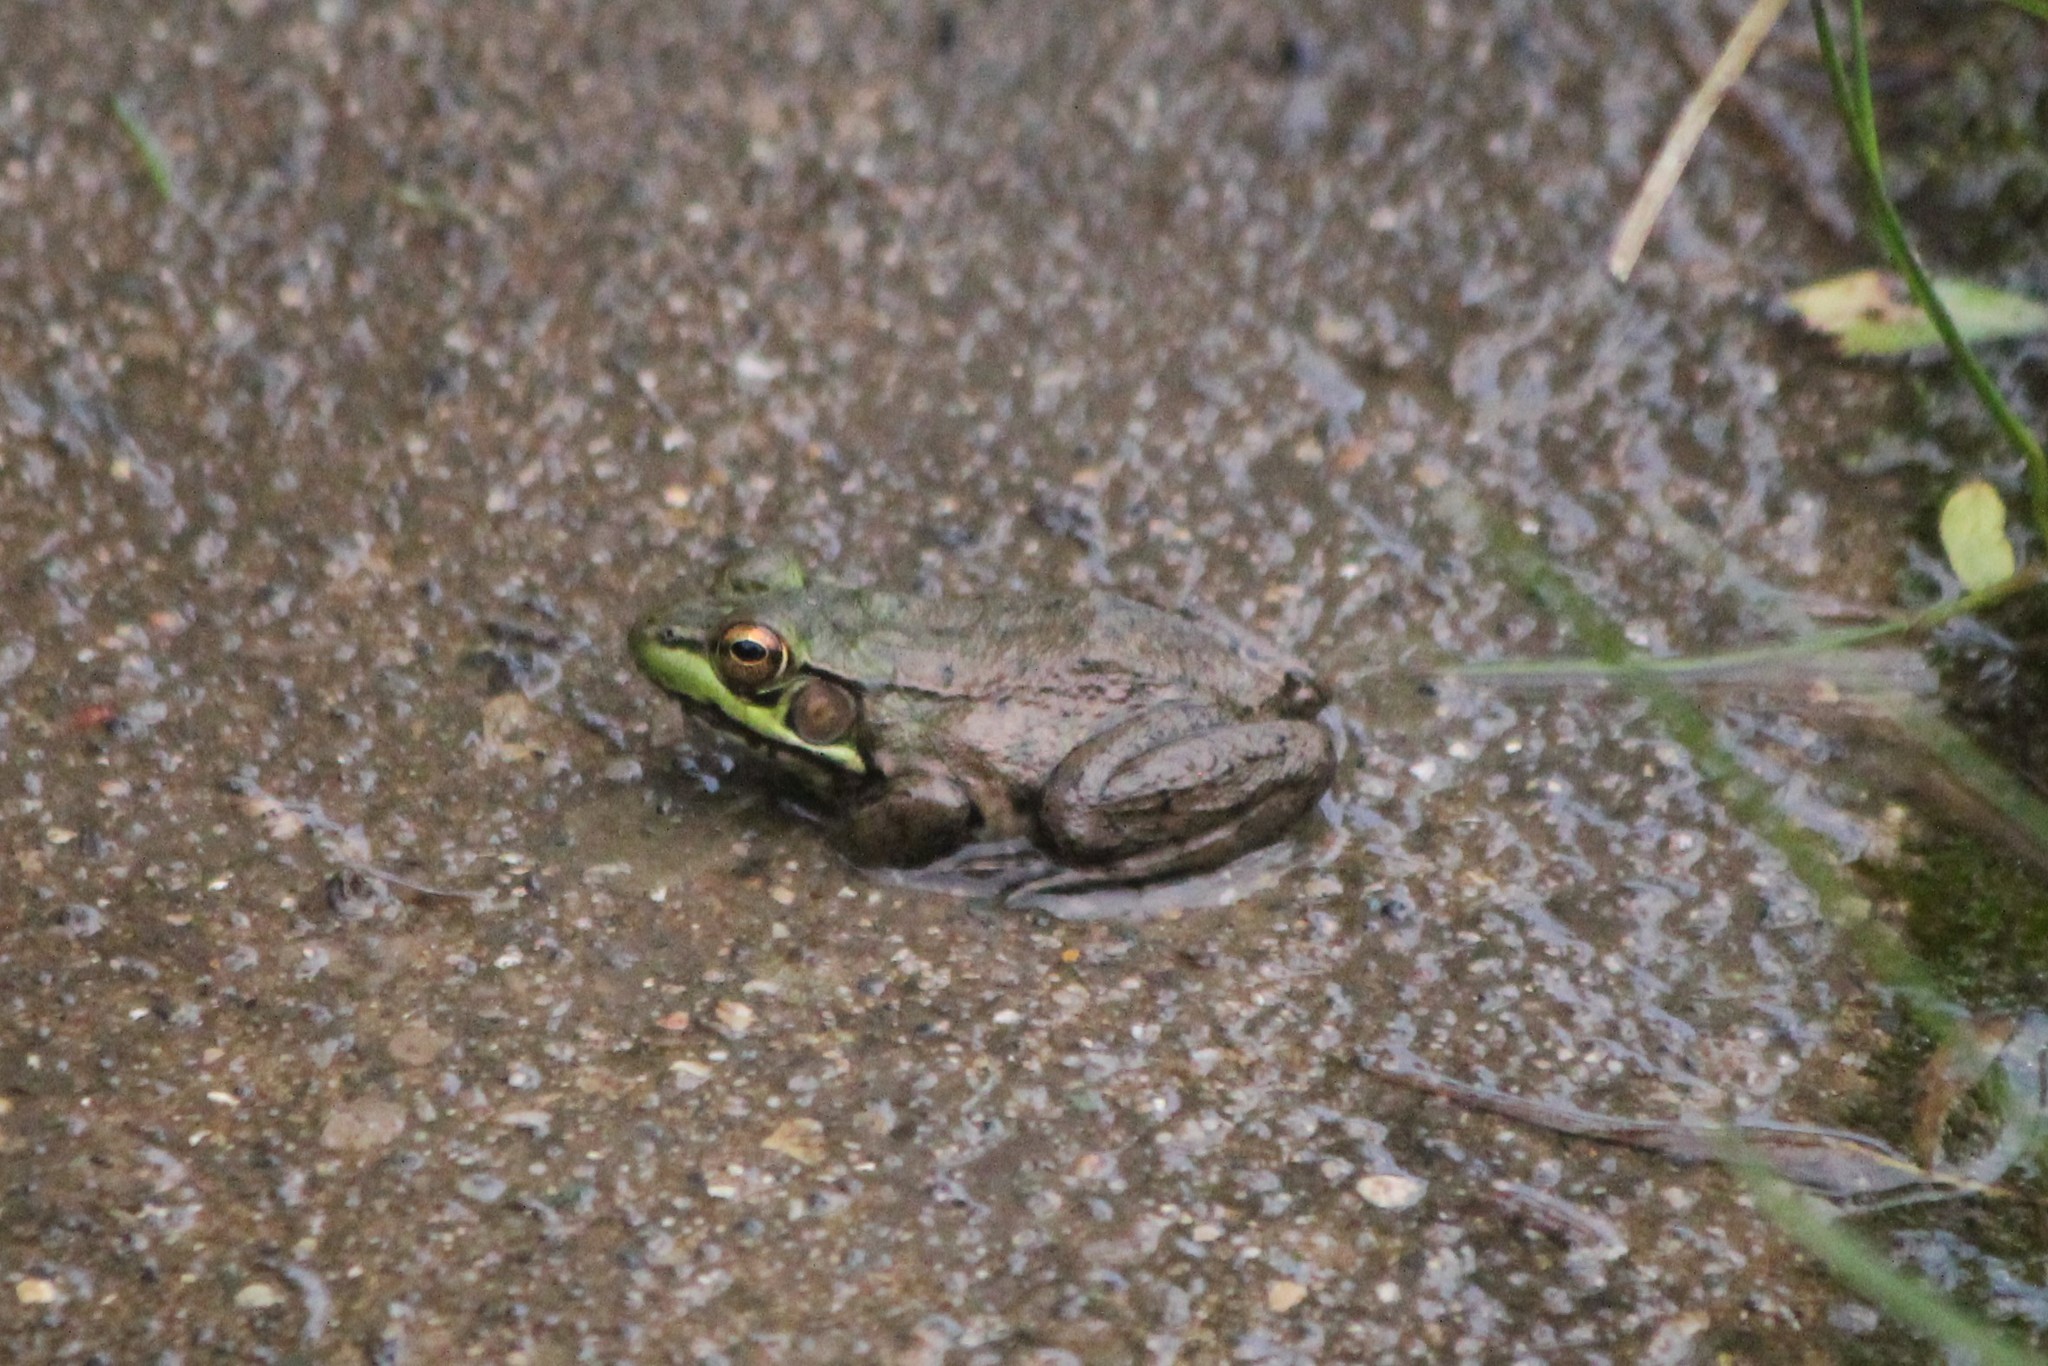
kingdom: Animalia
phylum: Chordata
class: Amphibia
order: Anura
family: Ranidae
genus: Lithobates
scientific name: Lithobates clamitans
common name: Green frog
